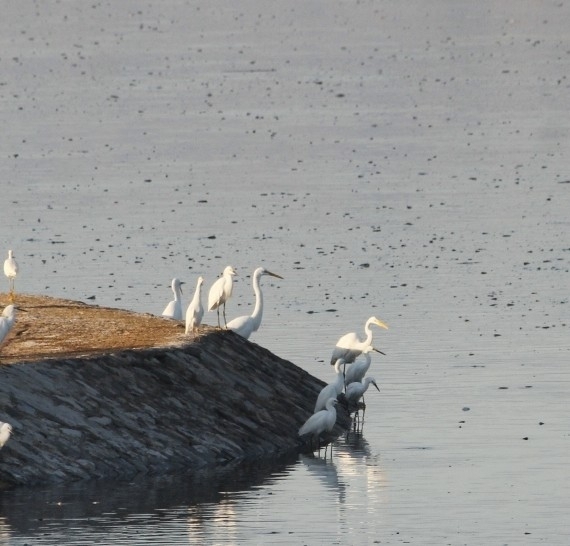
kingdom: Animalia
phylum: Chordata
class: Aves
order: Pelecaniformes
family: Ardeidae
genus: Ardea
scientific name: Ardea alba
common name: Great egret
